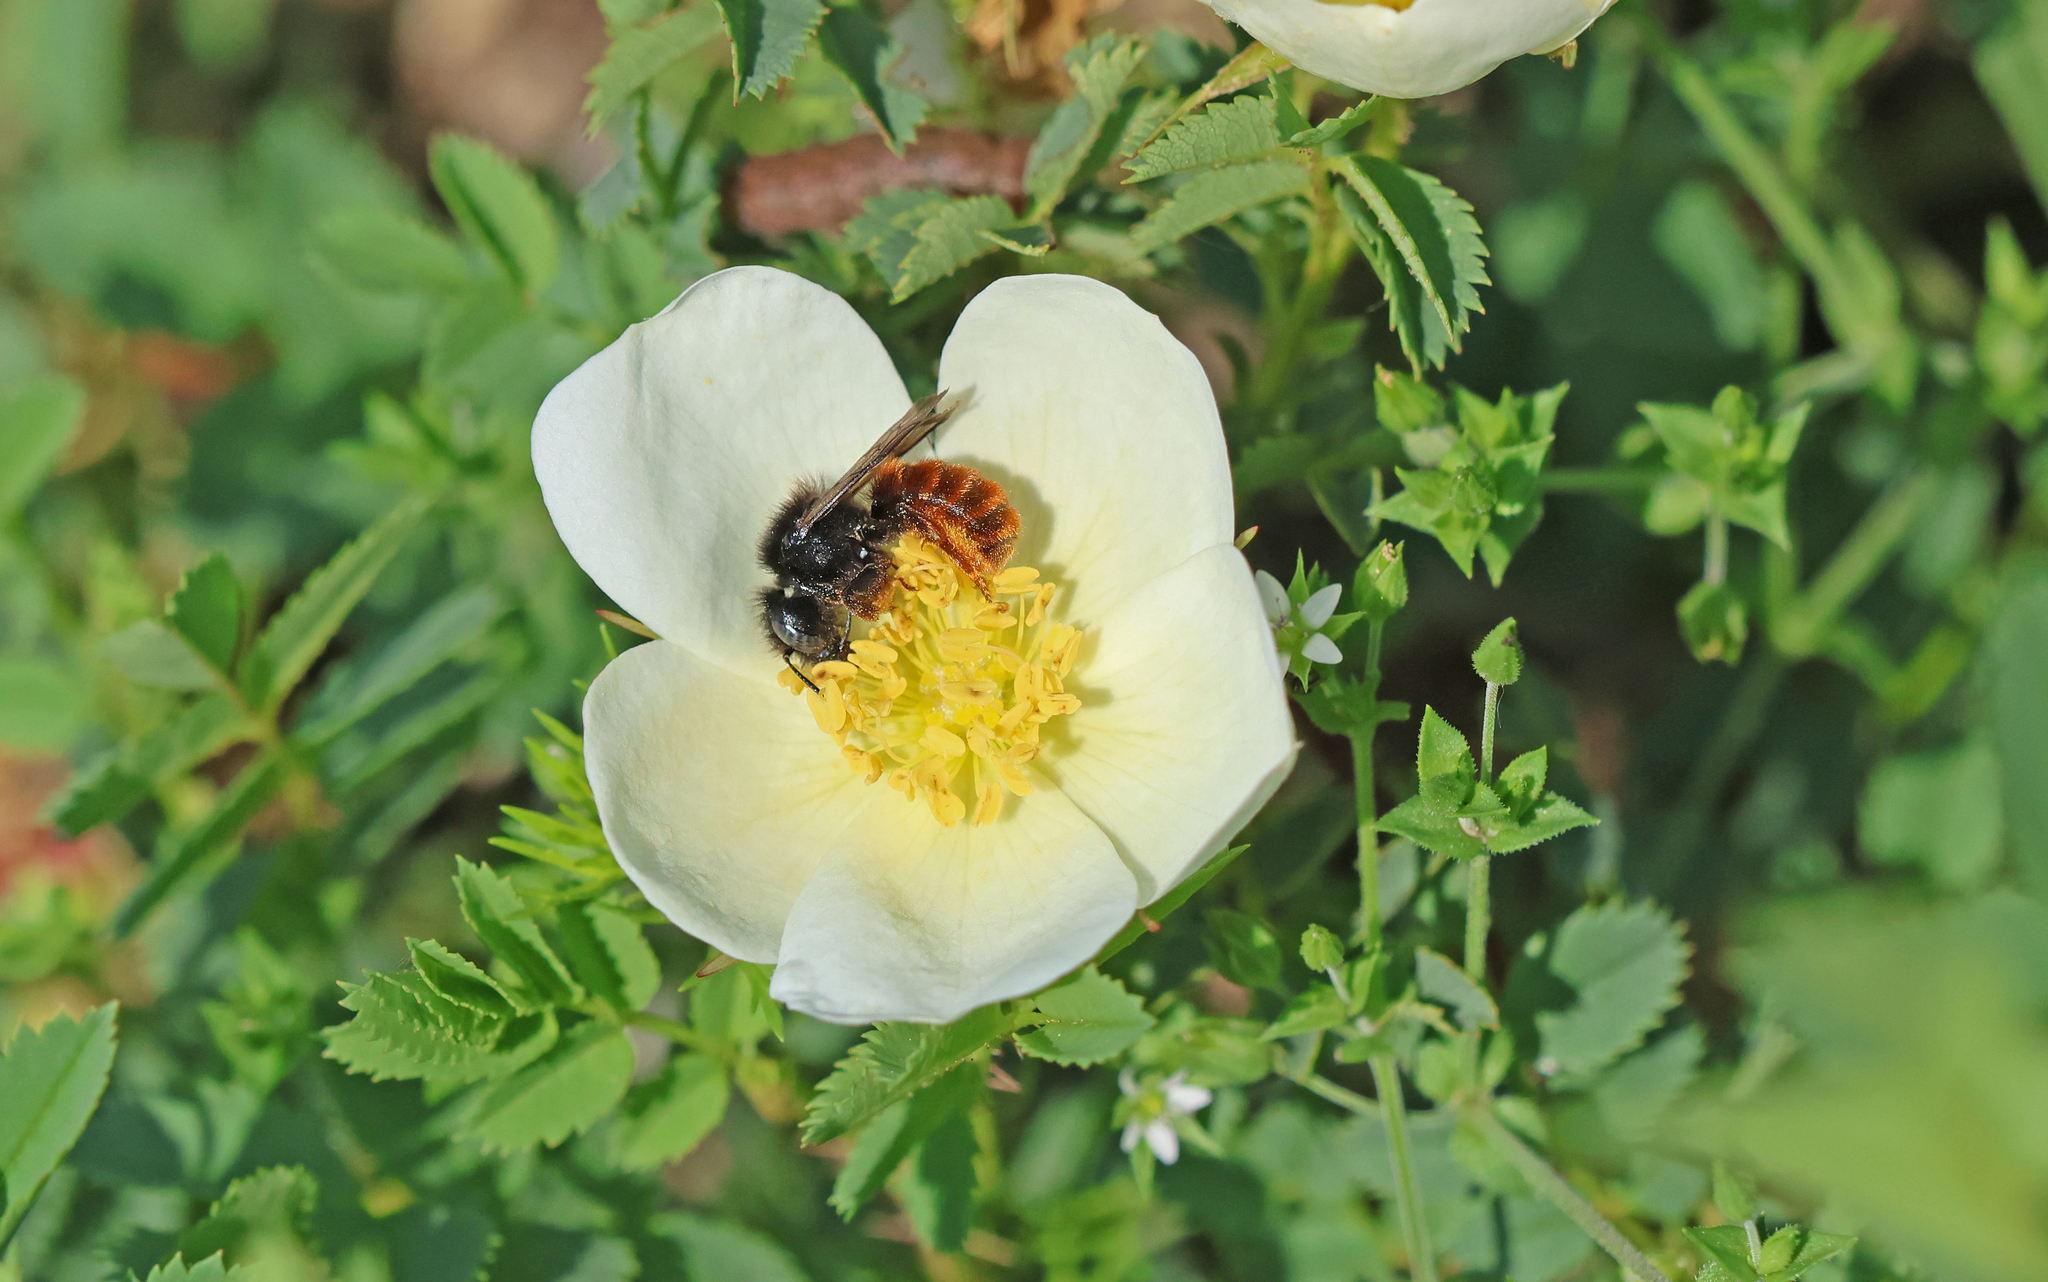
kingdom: Animalia
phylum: Arthropoda
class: Insecta
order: Hymenoptera
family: Megachilidae
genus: Osmia
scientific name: Osmia bicolor
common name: Red-tailed mason bee
